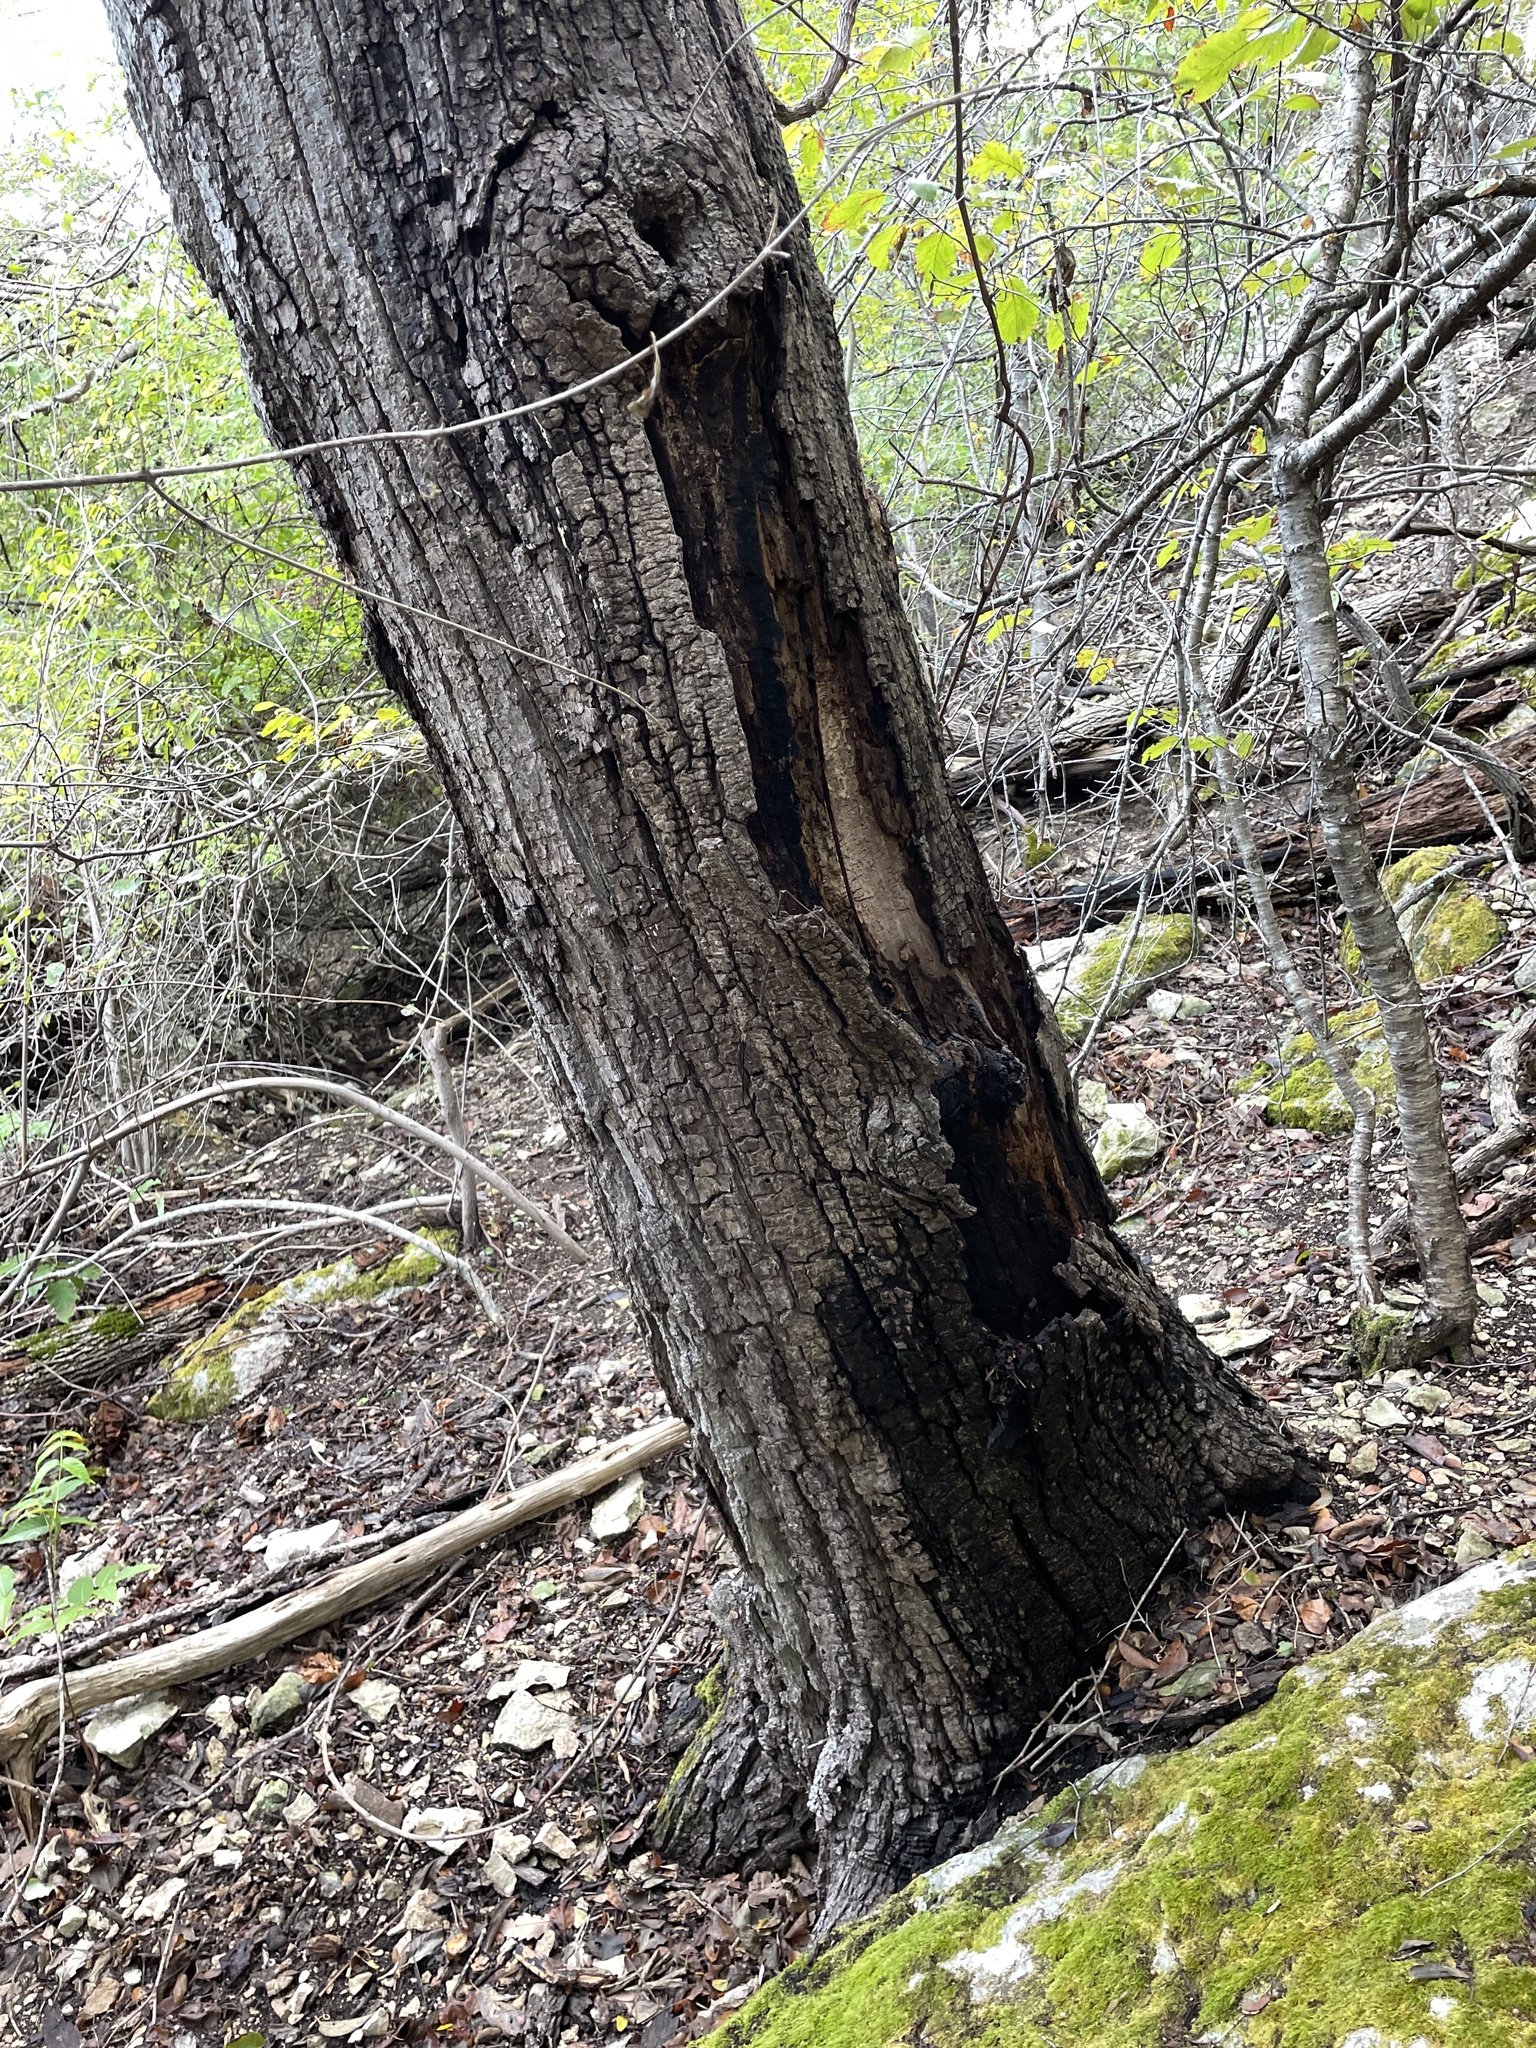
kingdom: Plantae
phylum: Tracheophyta
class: Magnoliopsida
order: Fagales
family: Fagaceae
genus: Quercus
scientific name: Quercus muehlenbergii
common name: Chinkapin oak
